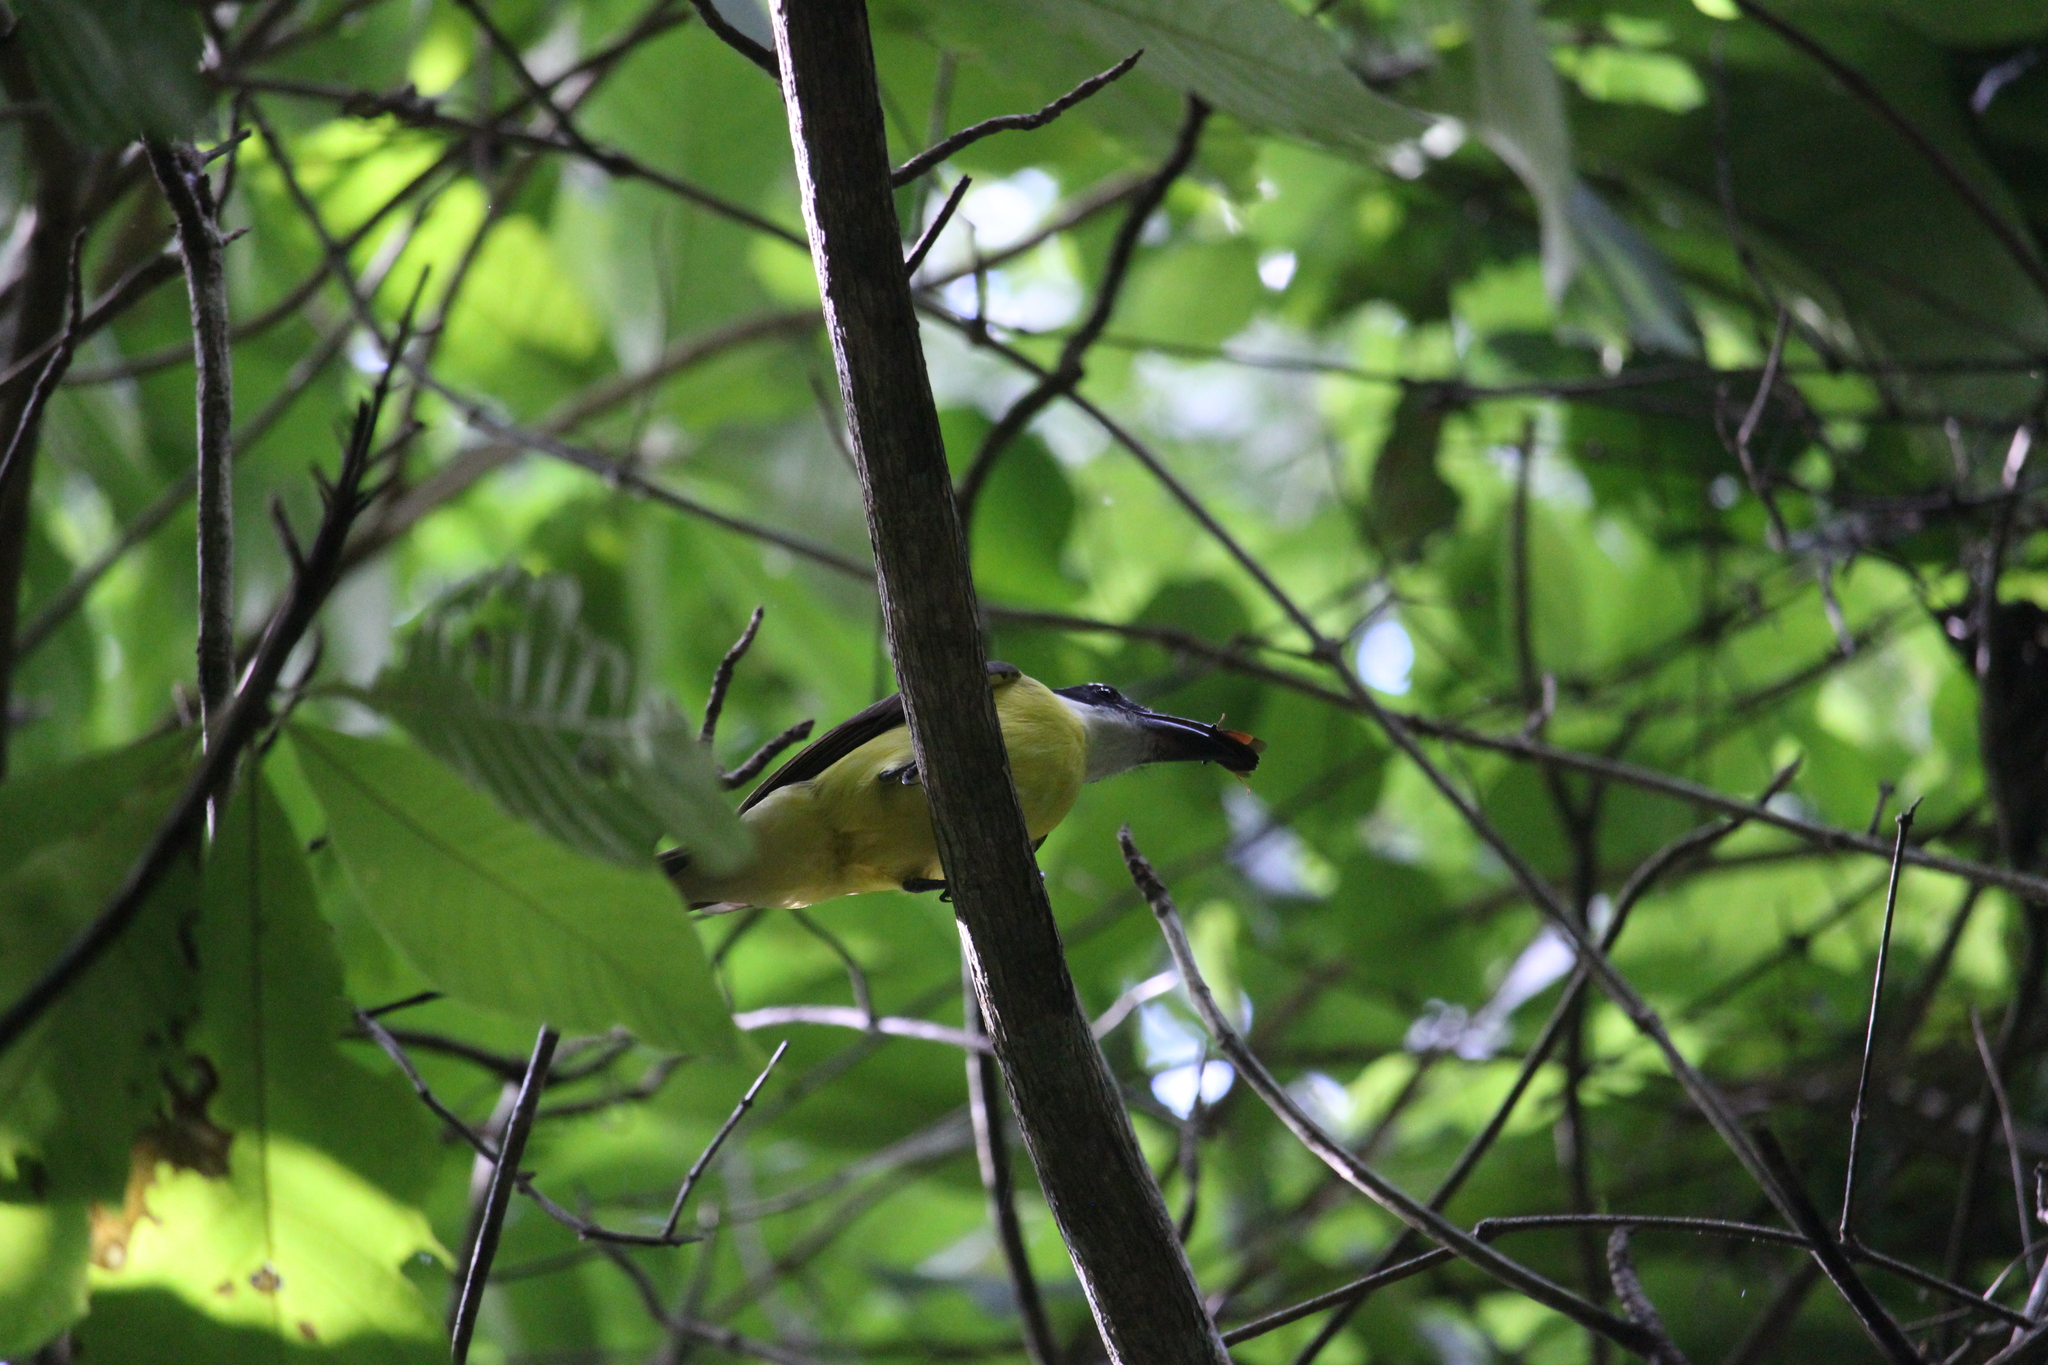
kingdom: Animalia
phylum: Chordata
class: Aves
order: Passeriformes
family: Tyrannidae
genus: Megarynchus
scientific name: Megarynchus pitangua
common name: Boat-billed flycatcher
